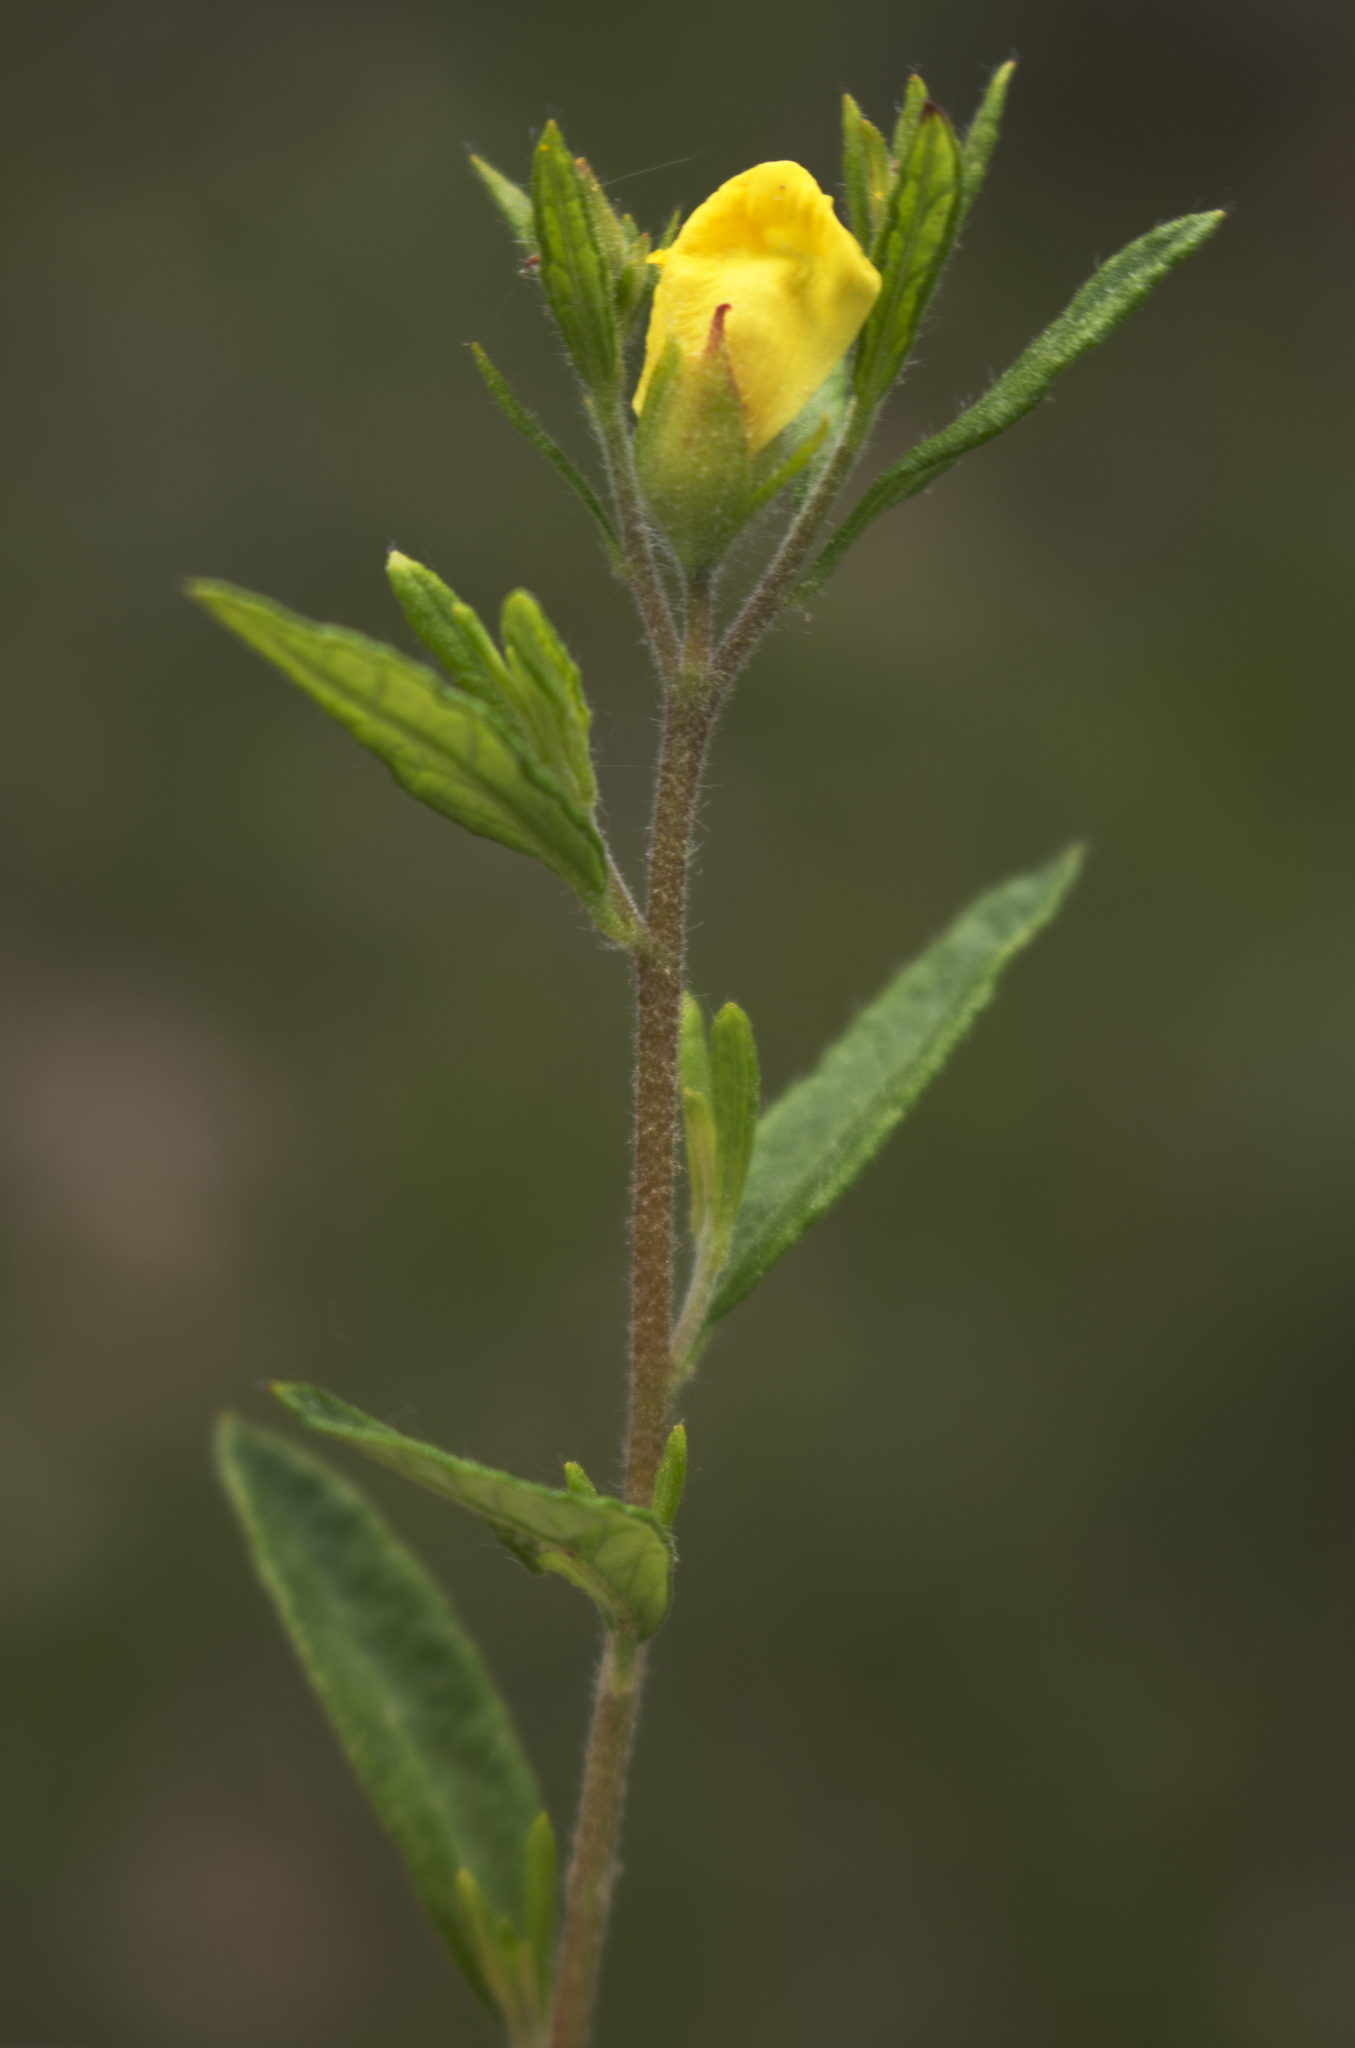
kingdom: Plantae
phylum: Tracheophyta
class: Magnoliopsida
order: Malvales
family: Cistaceae
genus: Crocanthemum
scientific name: Crocanthemum canadense
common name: Canada frostweed
